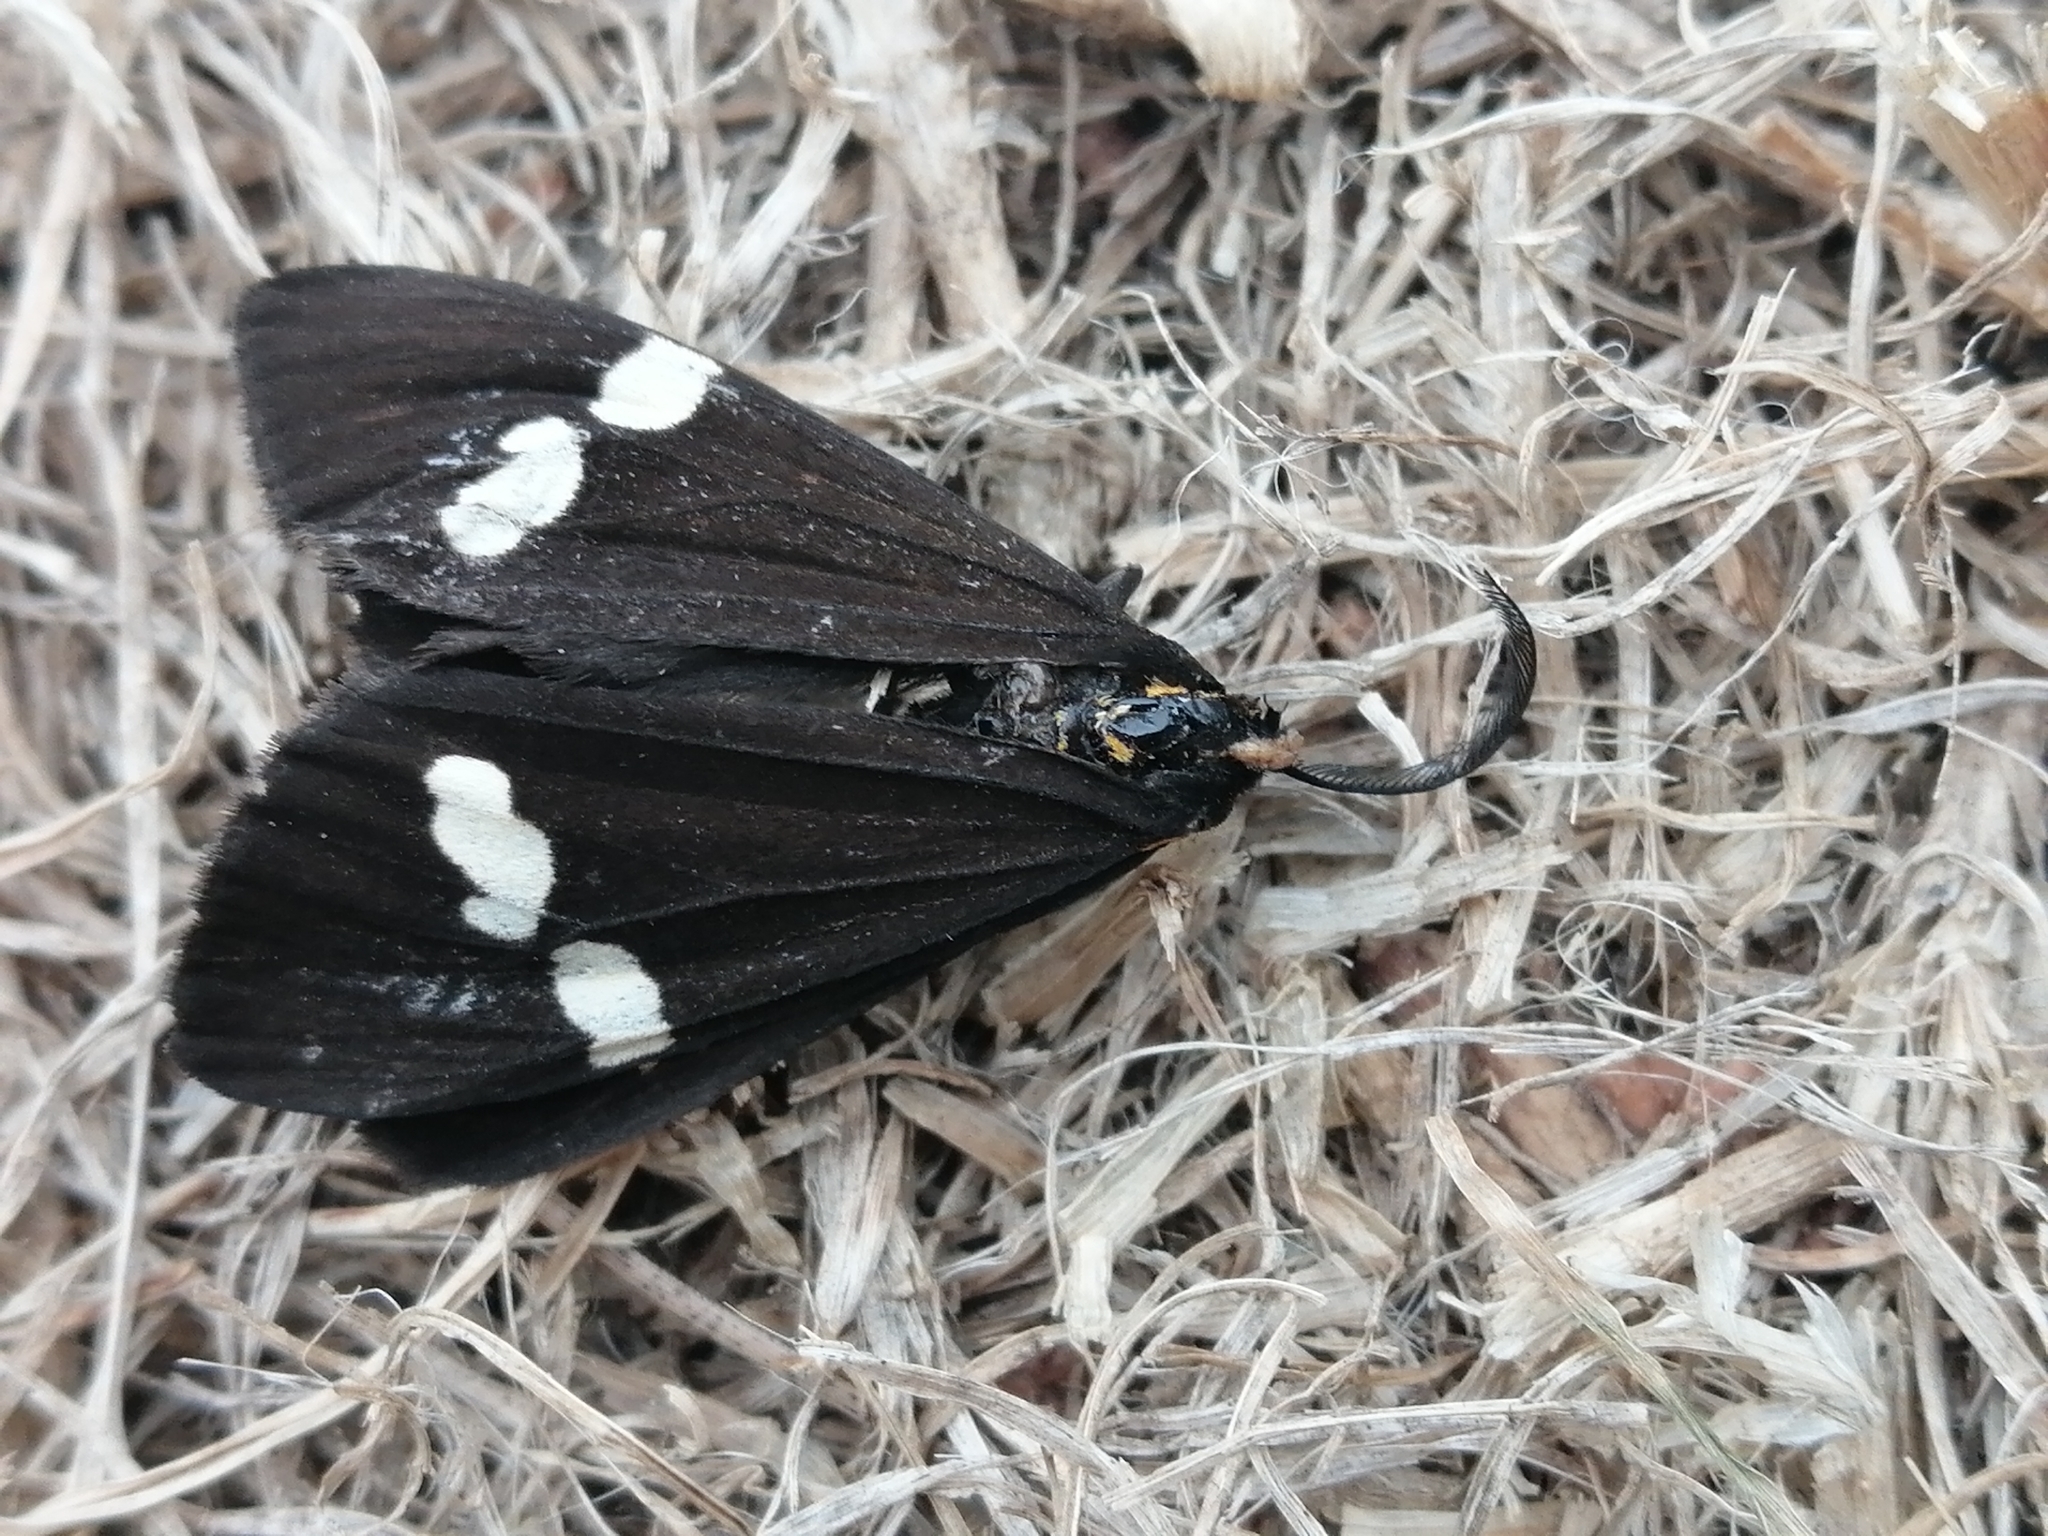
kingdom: Animalia
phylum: Arthropoda
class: Insecta
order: Lepidoptera
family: Erebidae
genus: Nyctemera
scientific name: Nyctemera annulatum
